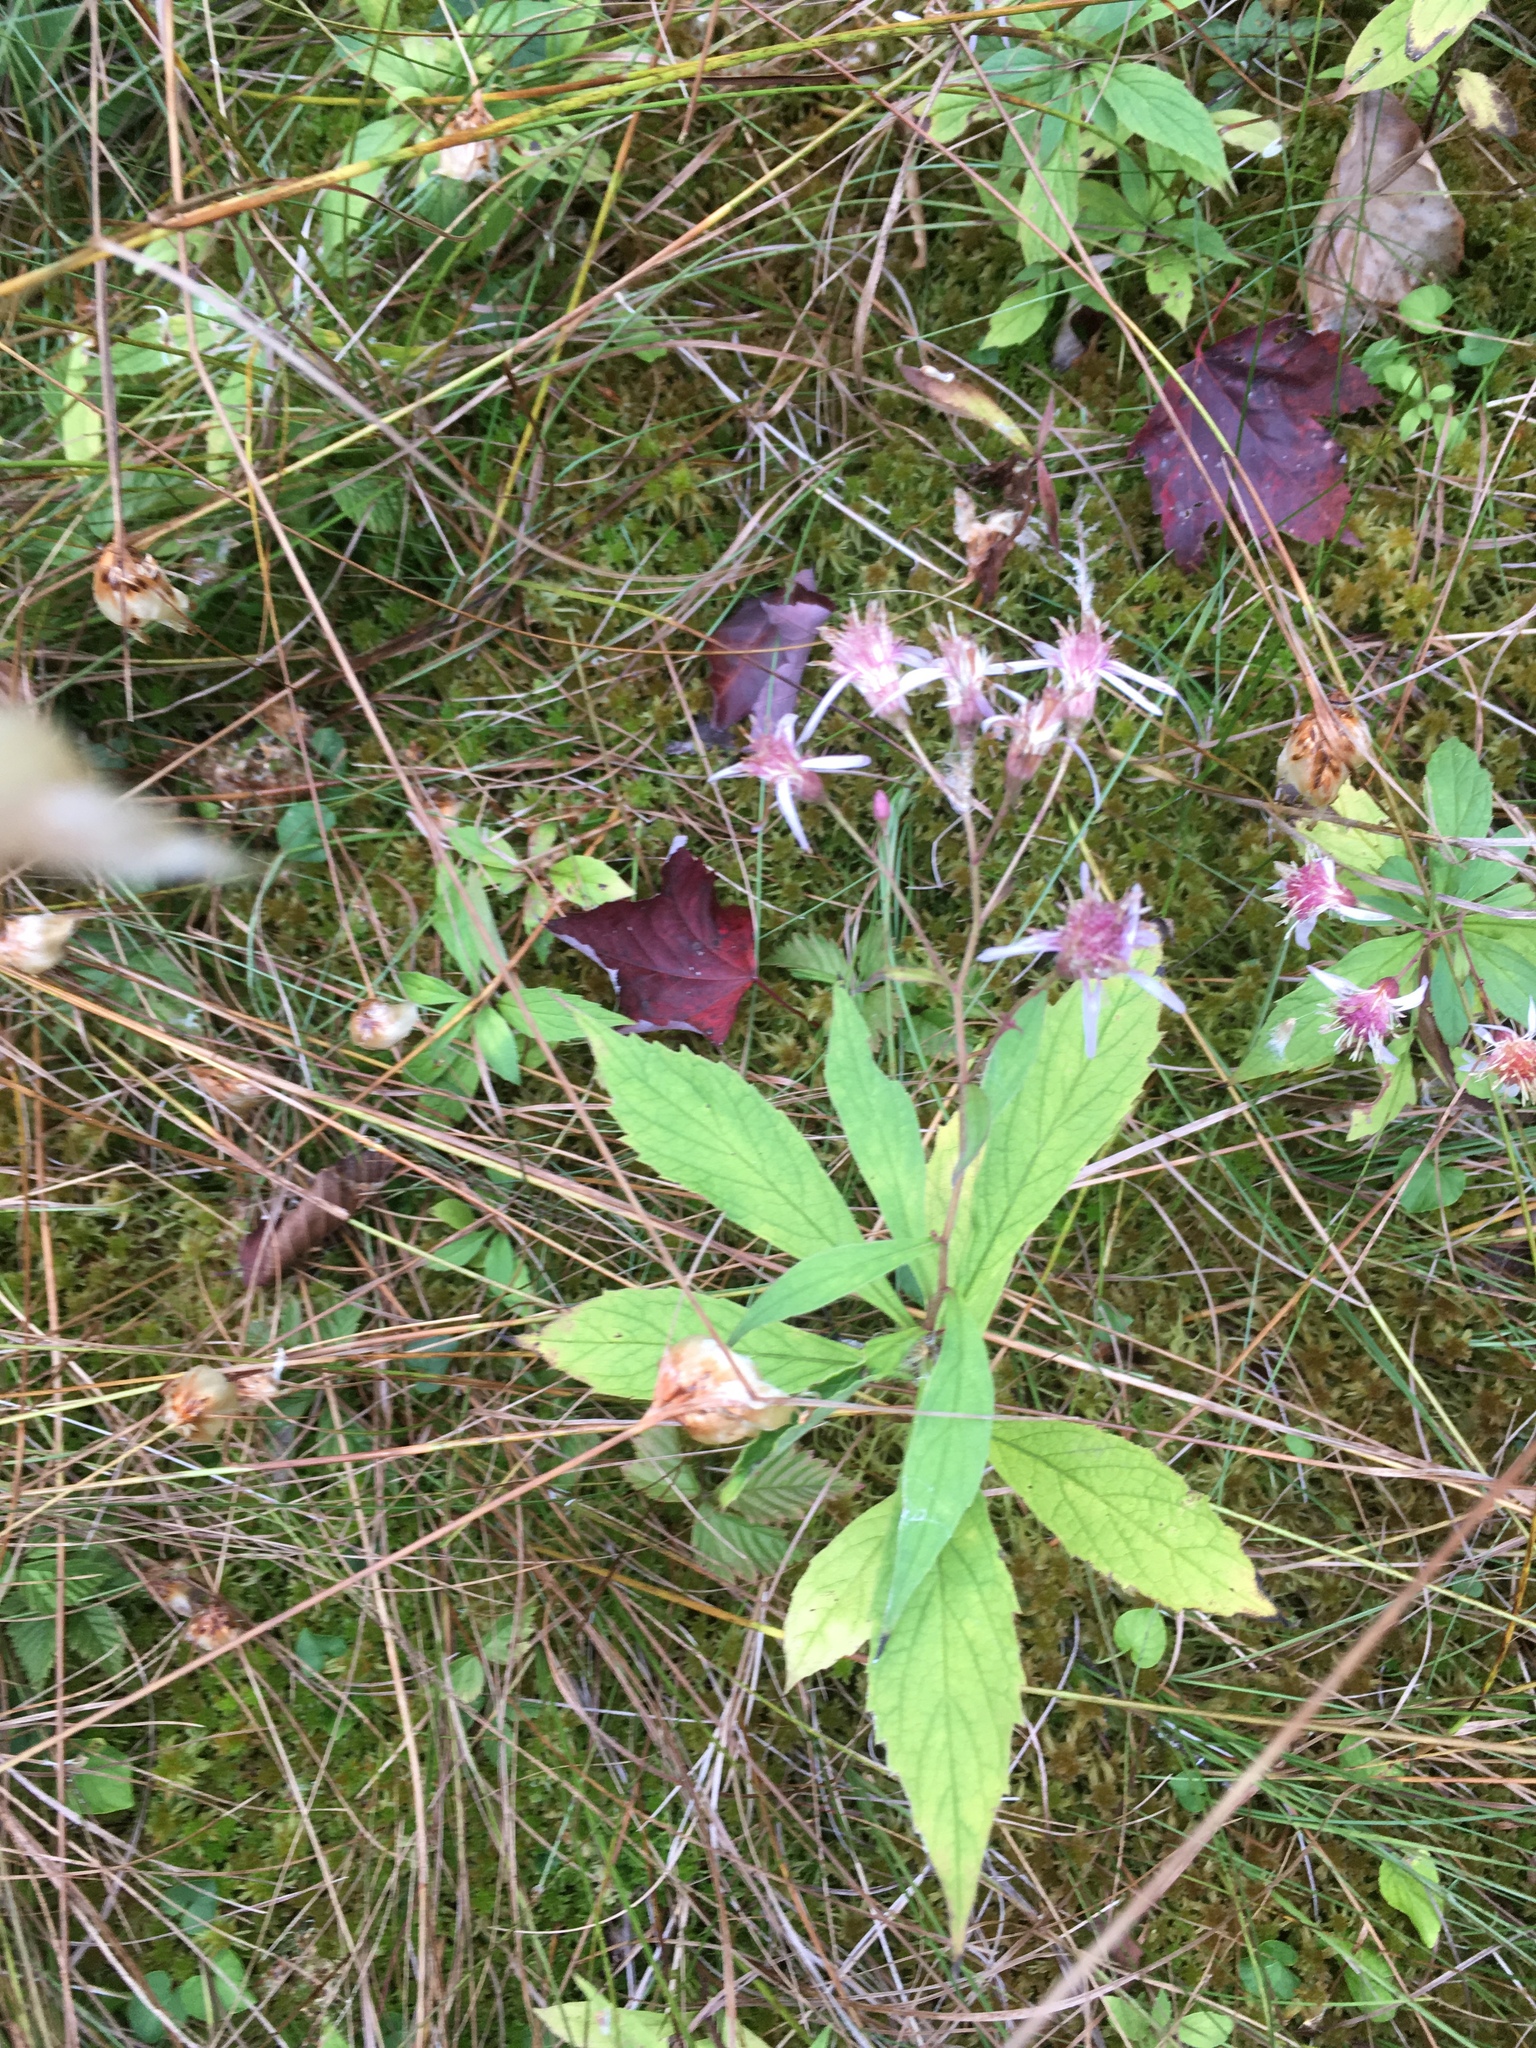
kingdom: Plantae
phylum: Tracheophyta
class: Magnoliopsida
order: Asterales
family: Asteraceae
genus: Oclemena
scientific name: Oclemena blakei
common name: Blake's aster
